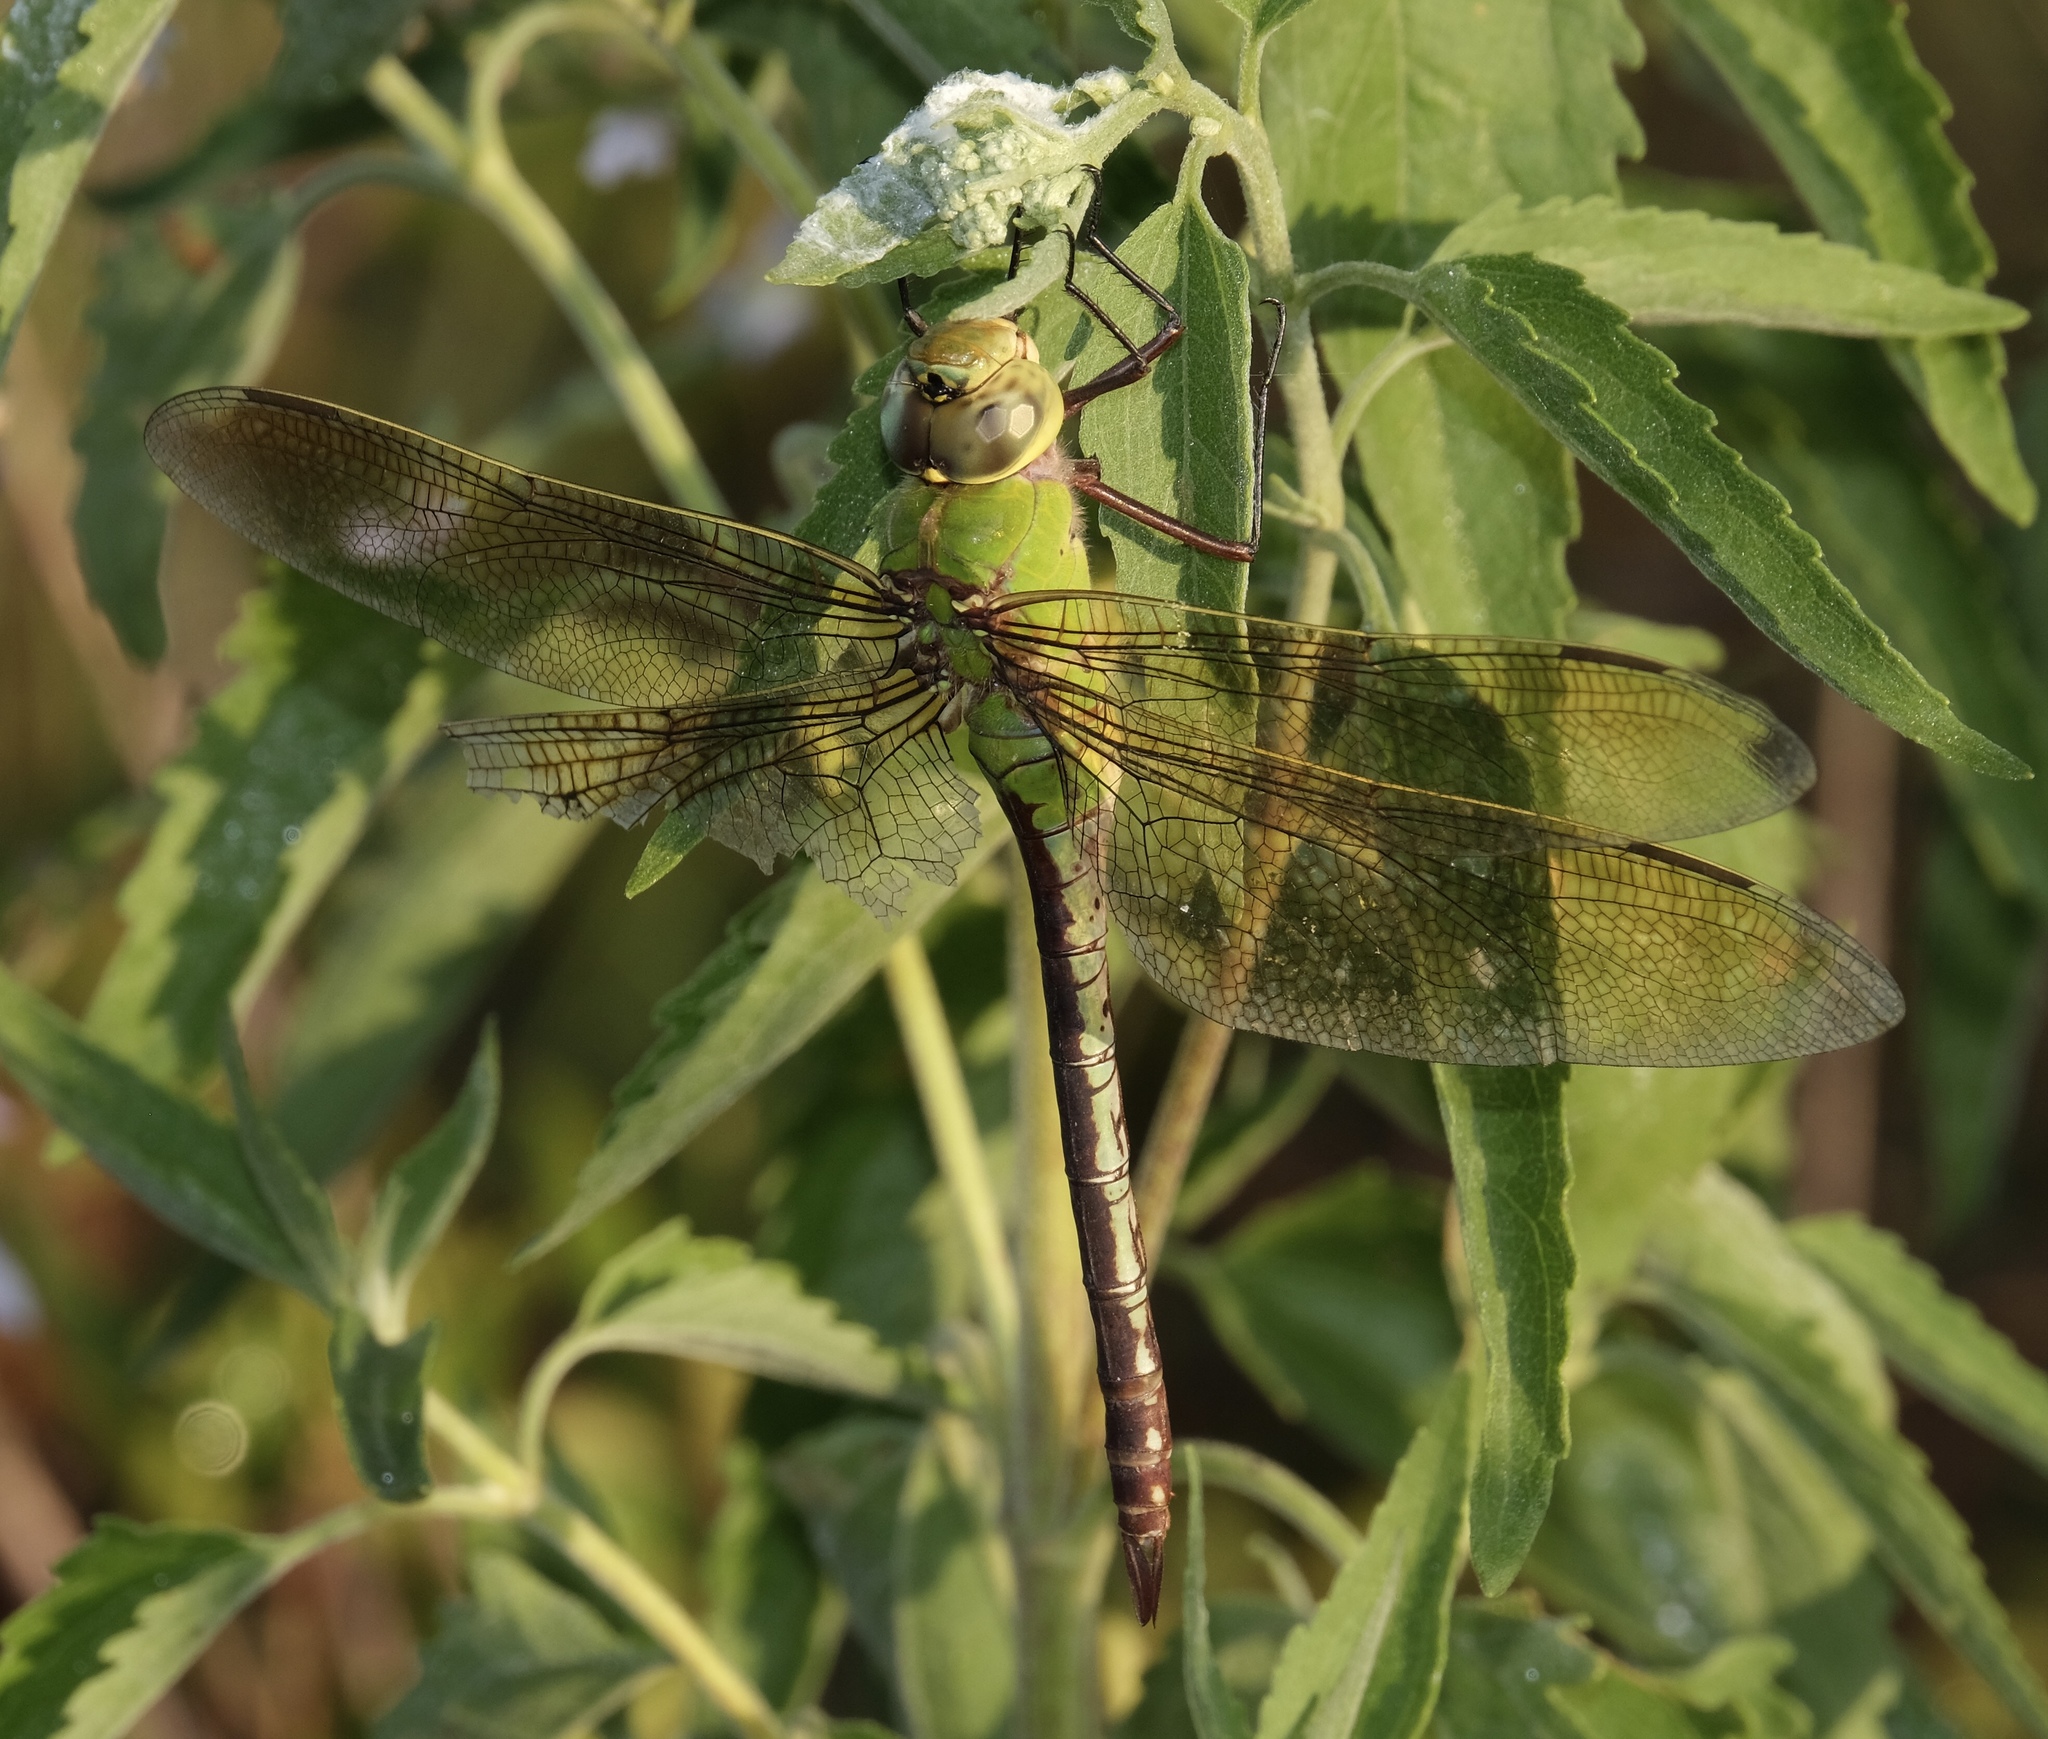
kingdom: Animalia
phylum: Arthropoda
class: Insecta
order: Odonata
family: Aeshnidae
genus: Anax
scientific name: Anax junius
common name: Common green darner
